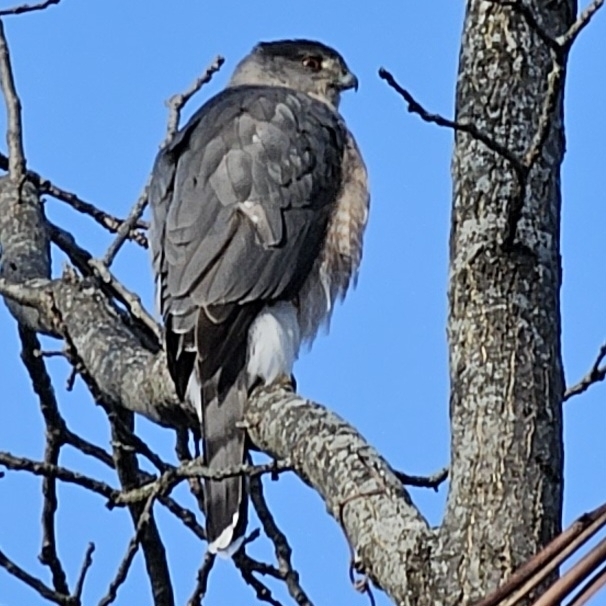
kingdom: Animalia
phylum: Chordata
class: Aves
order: Accipitriformes
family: Accipitridae
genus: Accipiter
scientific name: Accipiter cooperii
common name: Cooper's hawk
